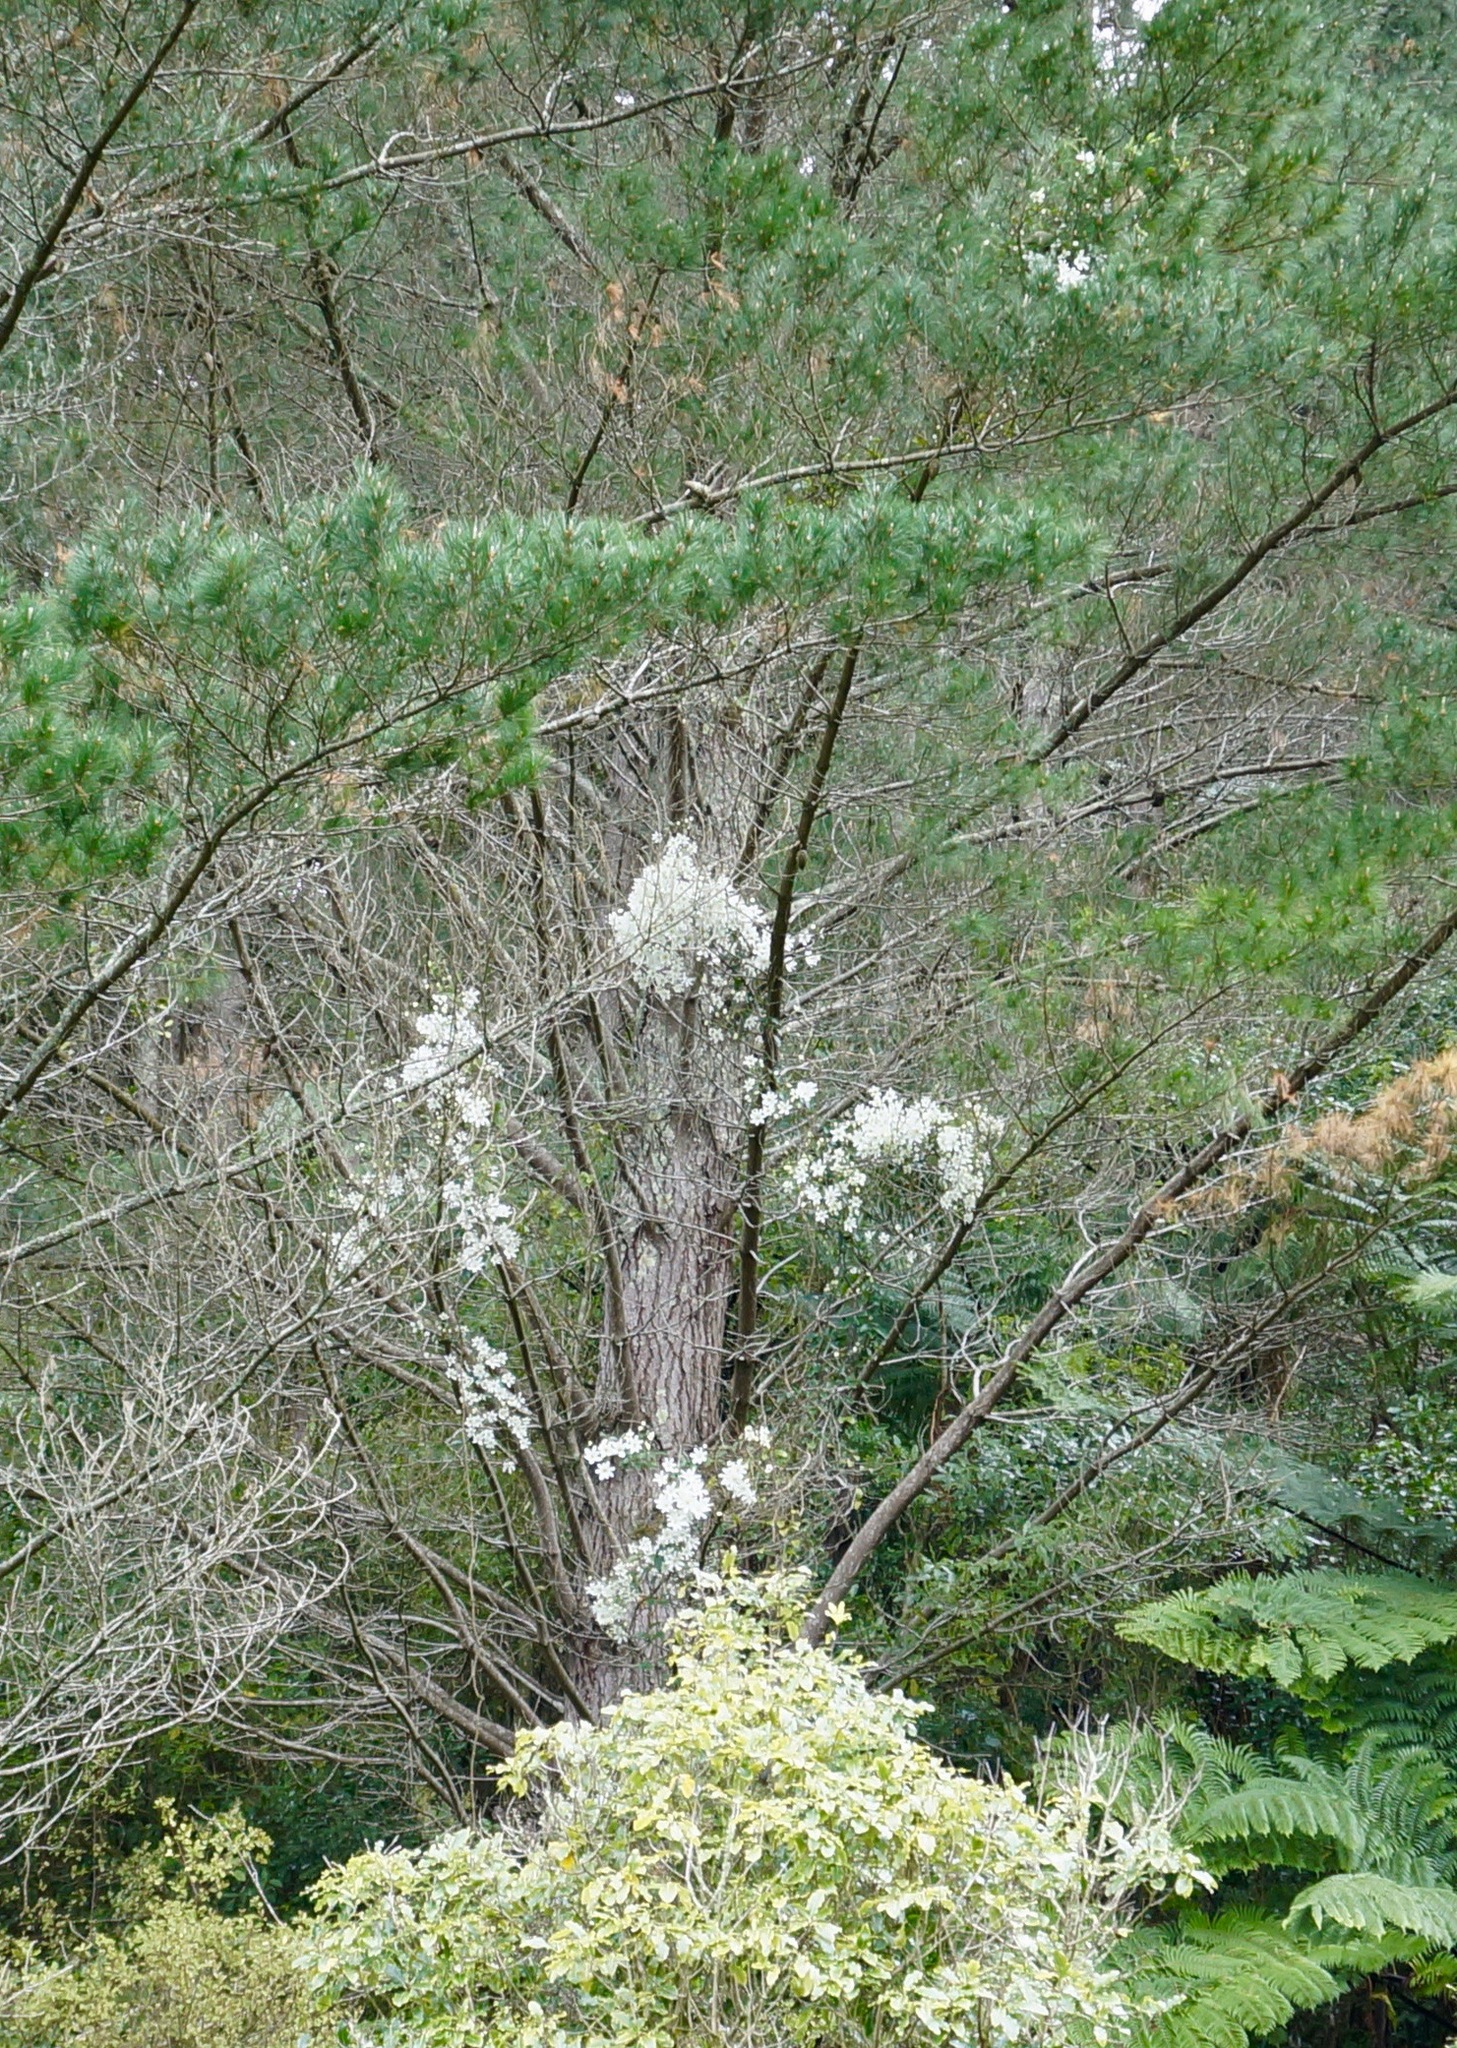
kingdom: Plantae
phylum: Tracheophyta
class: Magnoliopsida
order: Ranunculales
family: Ranunculaceae
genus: Clematis
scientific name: Clematis paniculata
